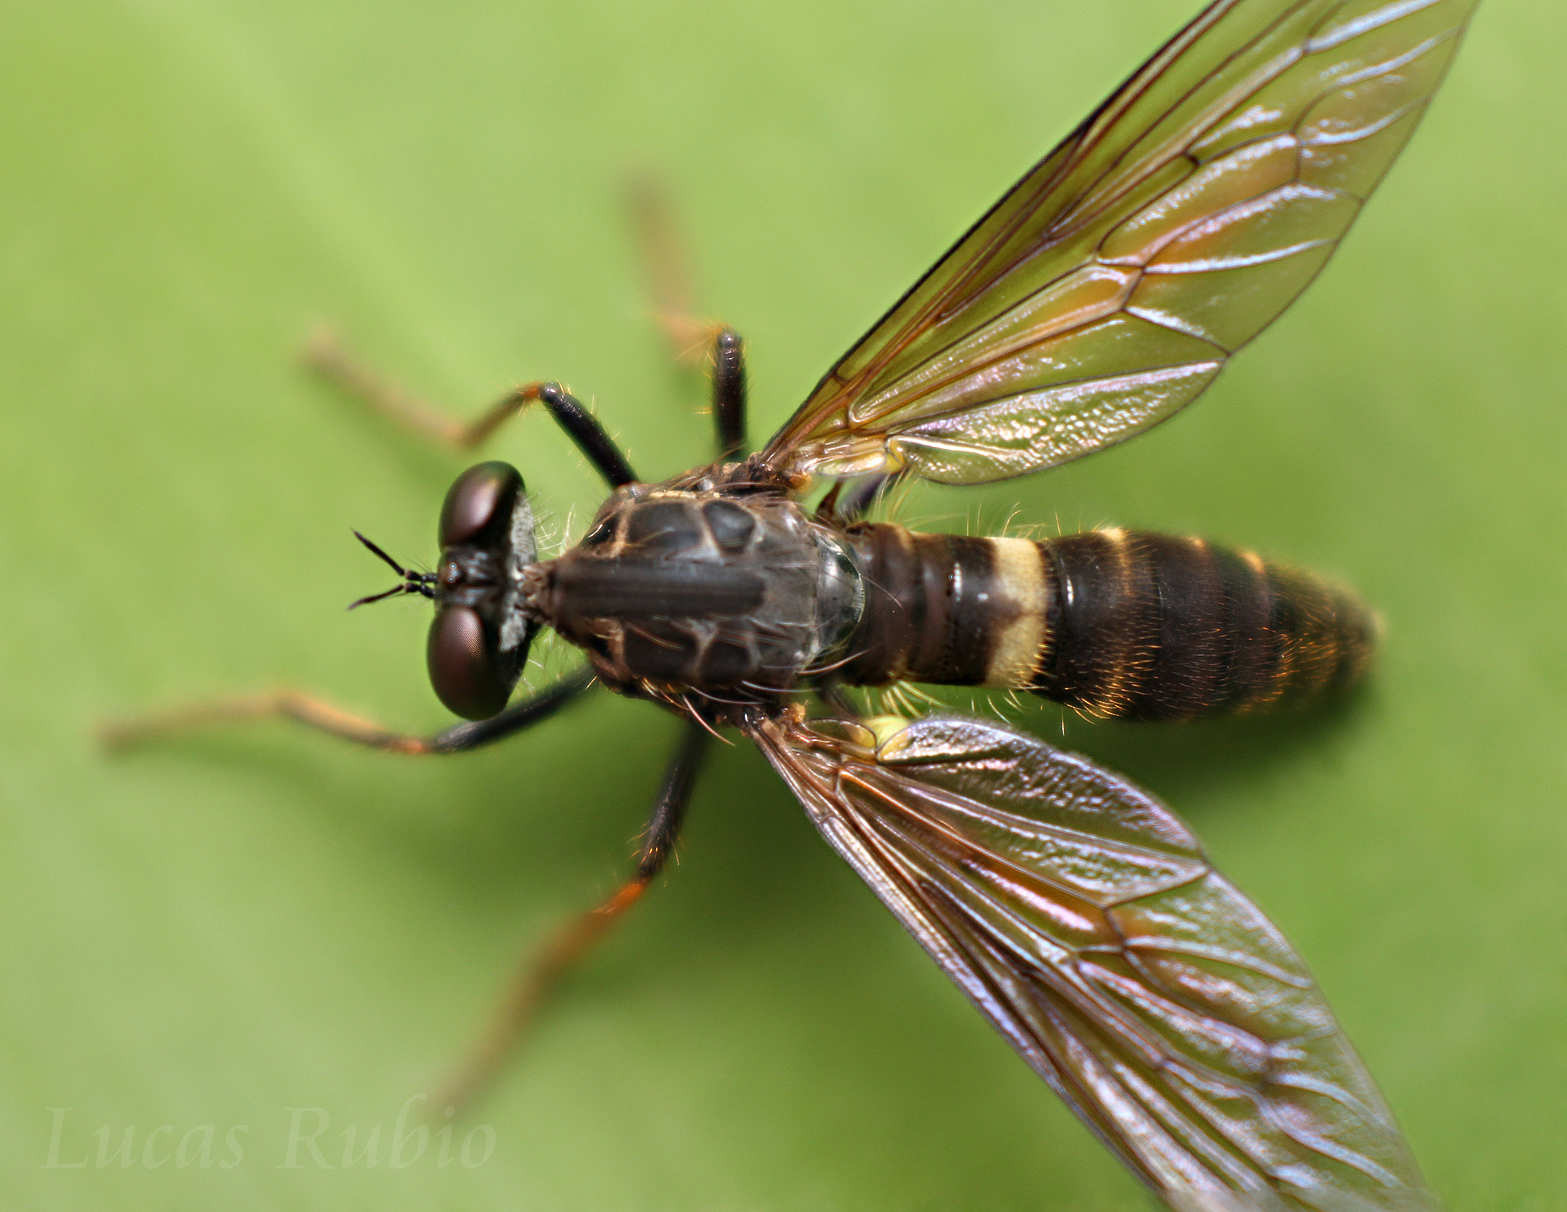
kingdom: Animalia
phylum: Arthropoda
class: Insecta
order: Diptera
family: Asilidae
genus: Aspidopyga
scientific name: Aspidopyga cophuroides
